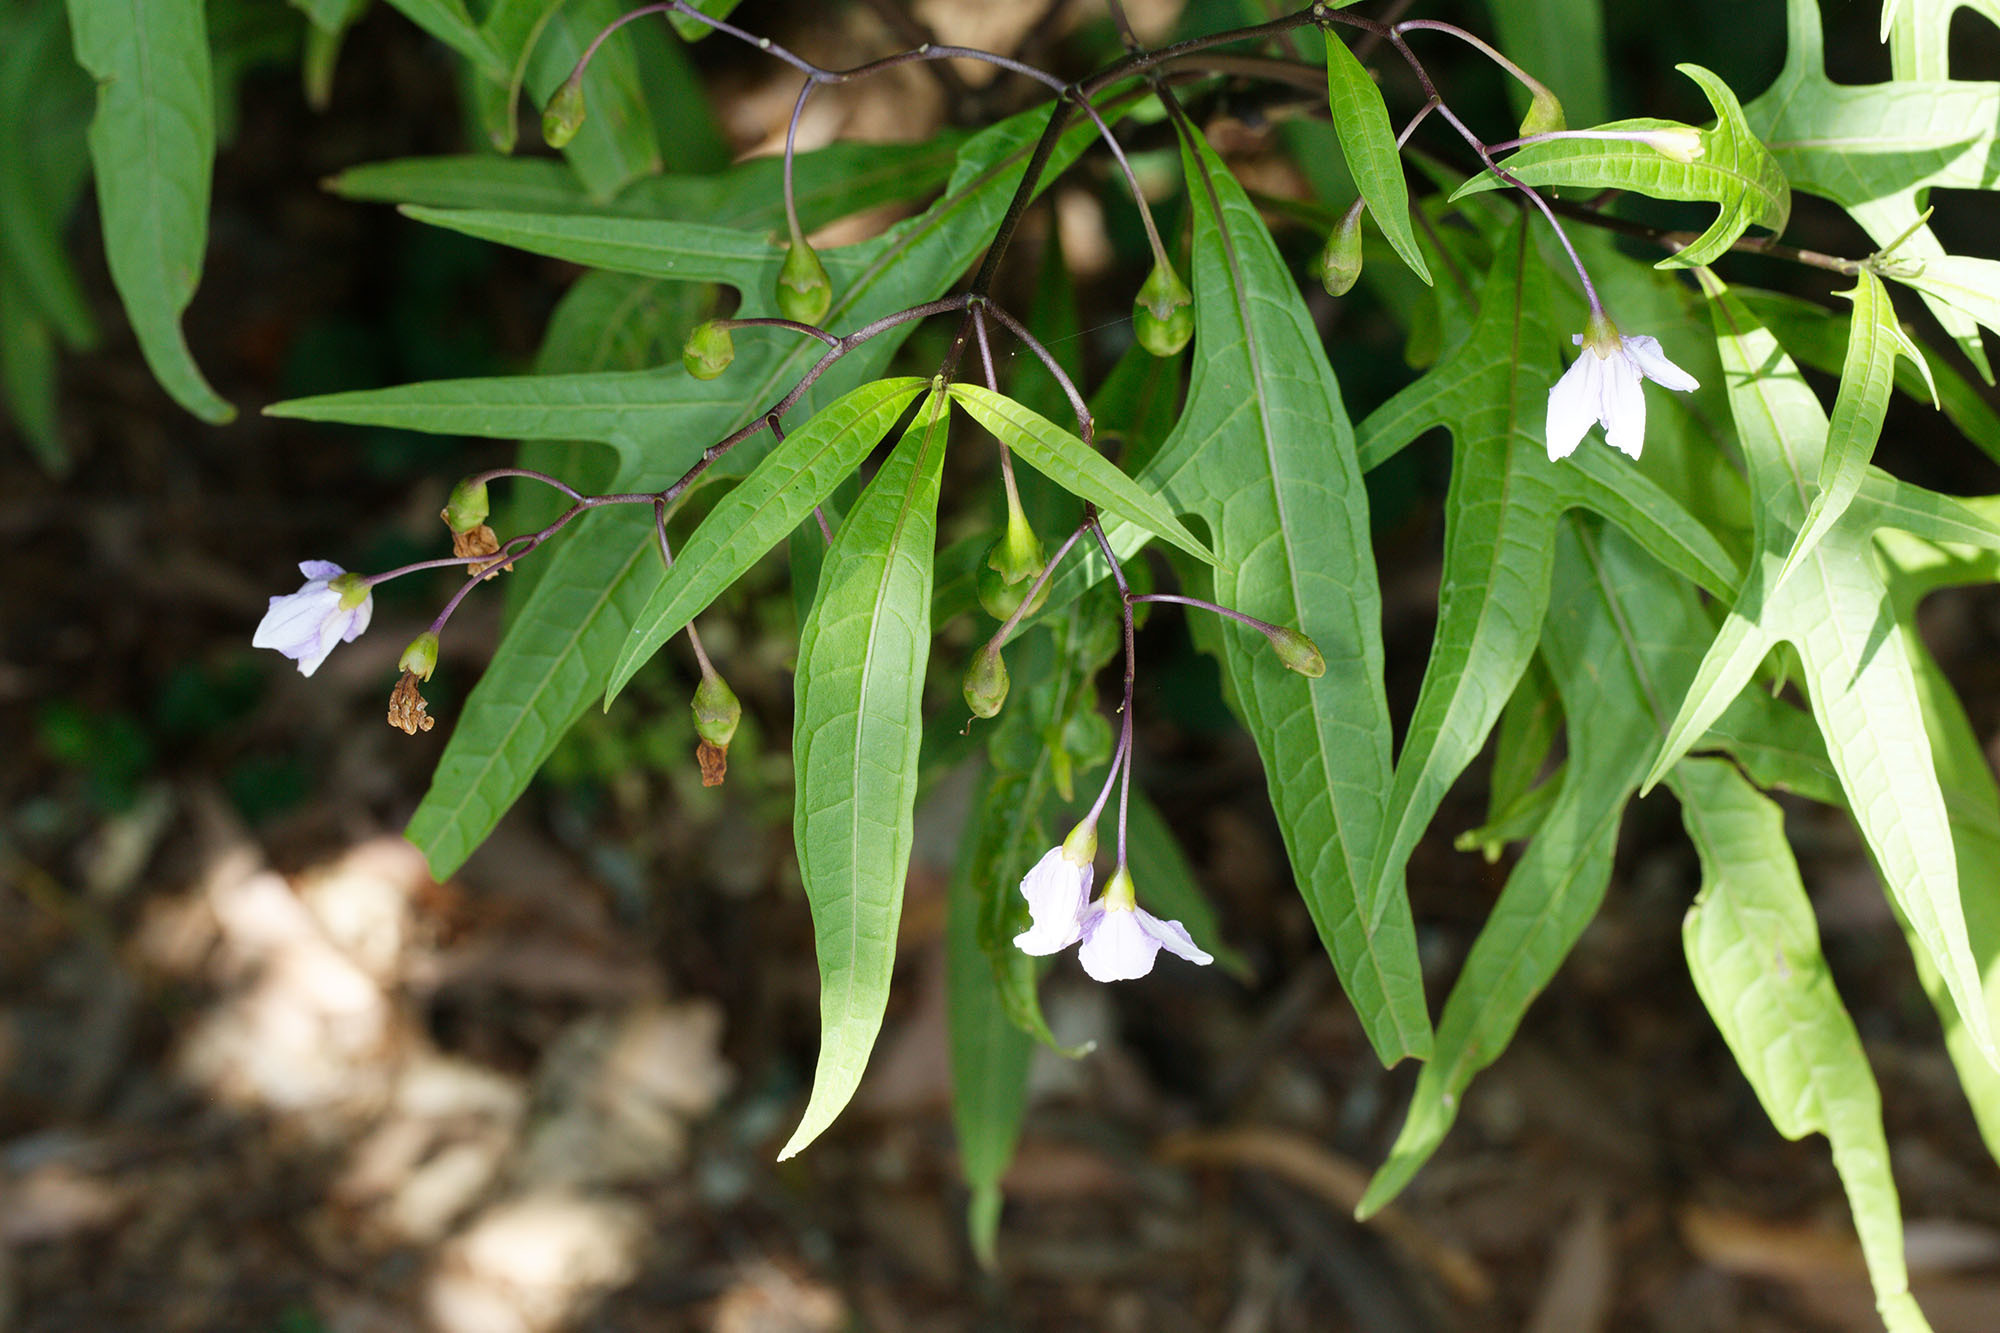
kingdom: Plantae
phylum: Tracheophyta
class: Magnoliopsida
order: Solanales
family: Solanaceae
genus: Solanum
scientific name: Solanum aviculare
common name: New zealand nightshade
